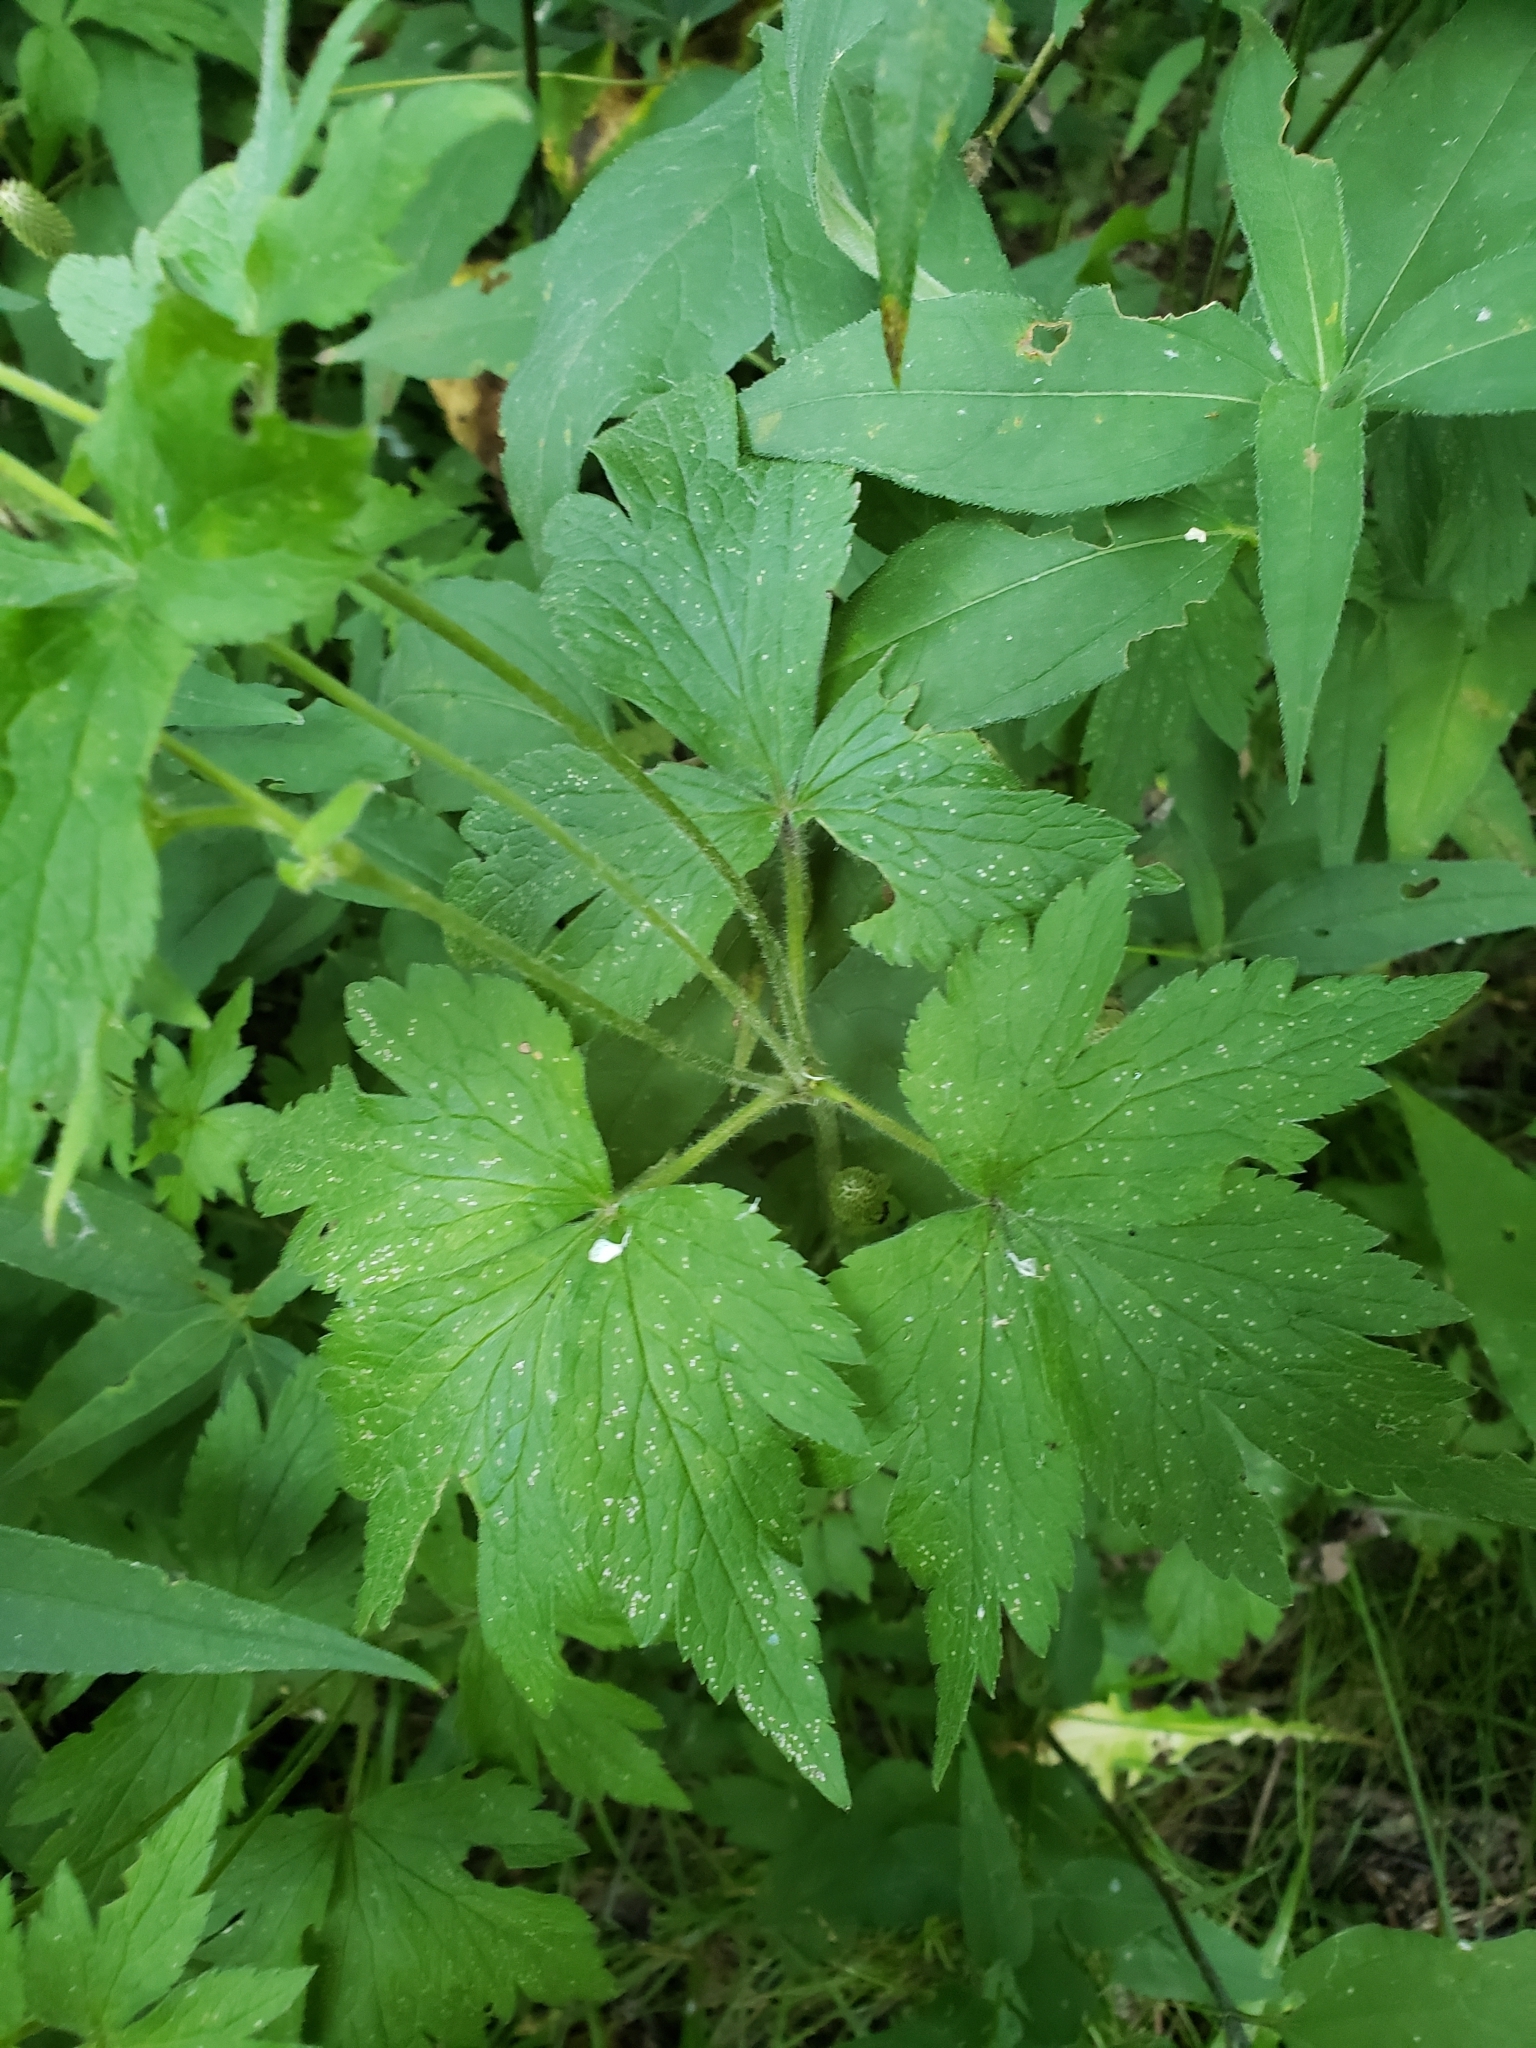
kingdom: Plantae
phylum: Tracheophyta
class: Magnoliopsida
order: Ranunculales
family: Ranunculaceae
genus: Anemone
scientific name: Anemone virginiana
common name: Tall anemone
